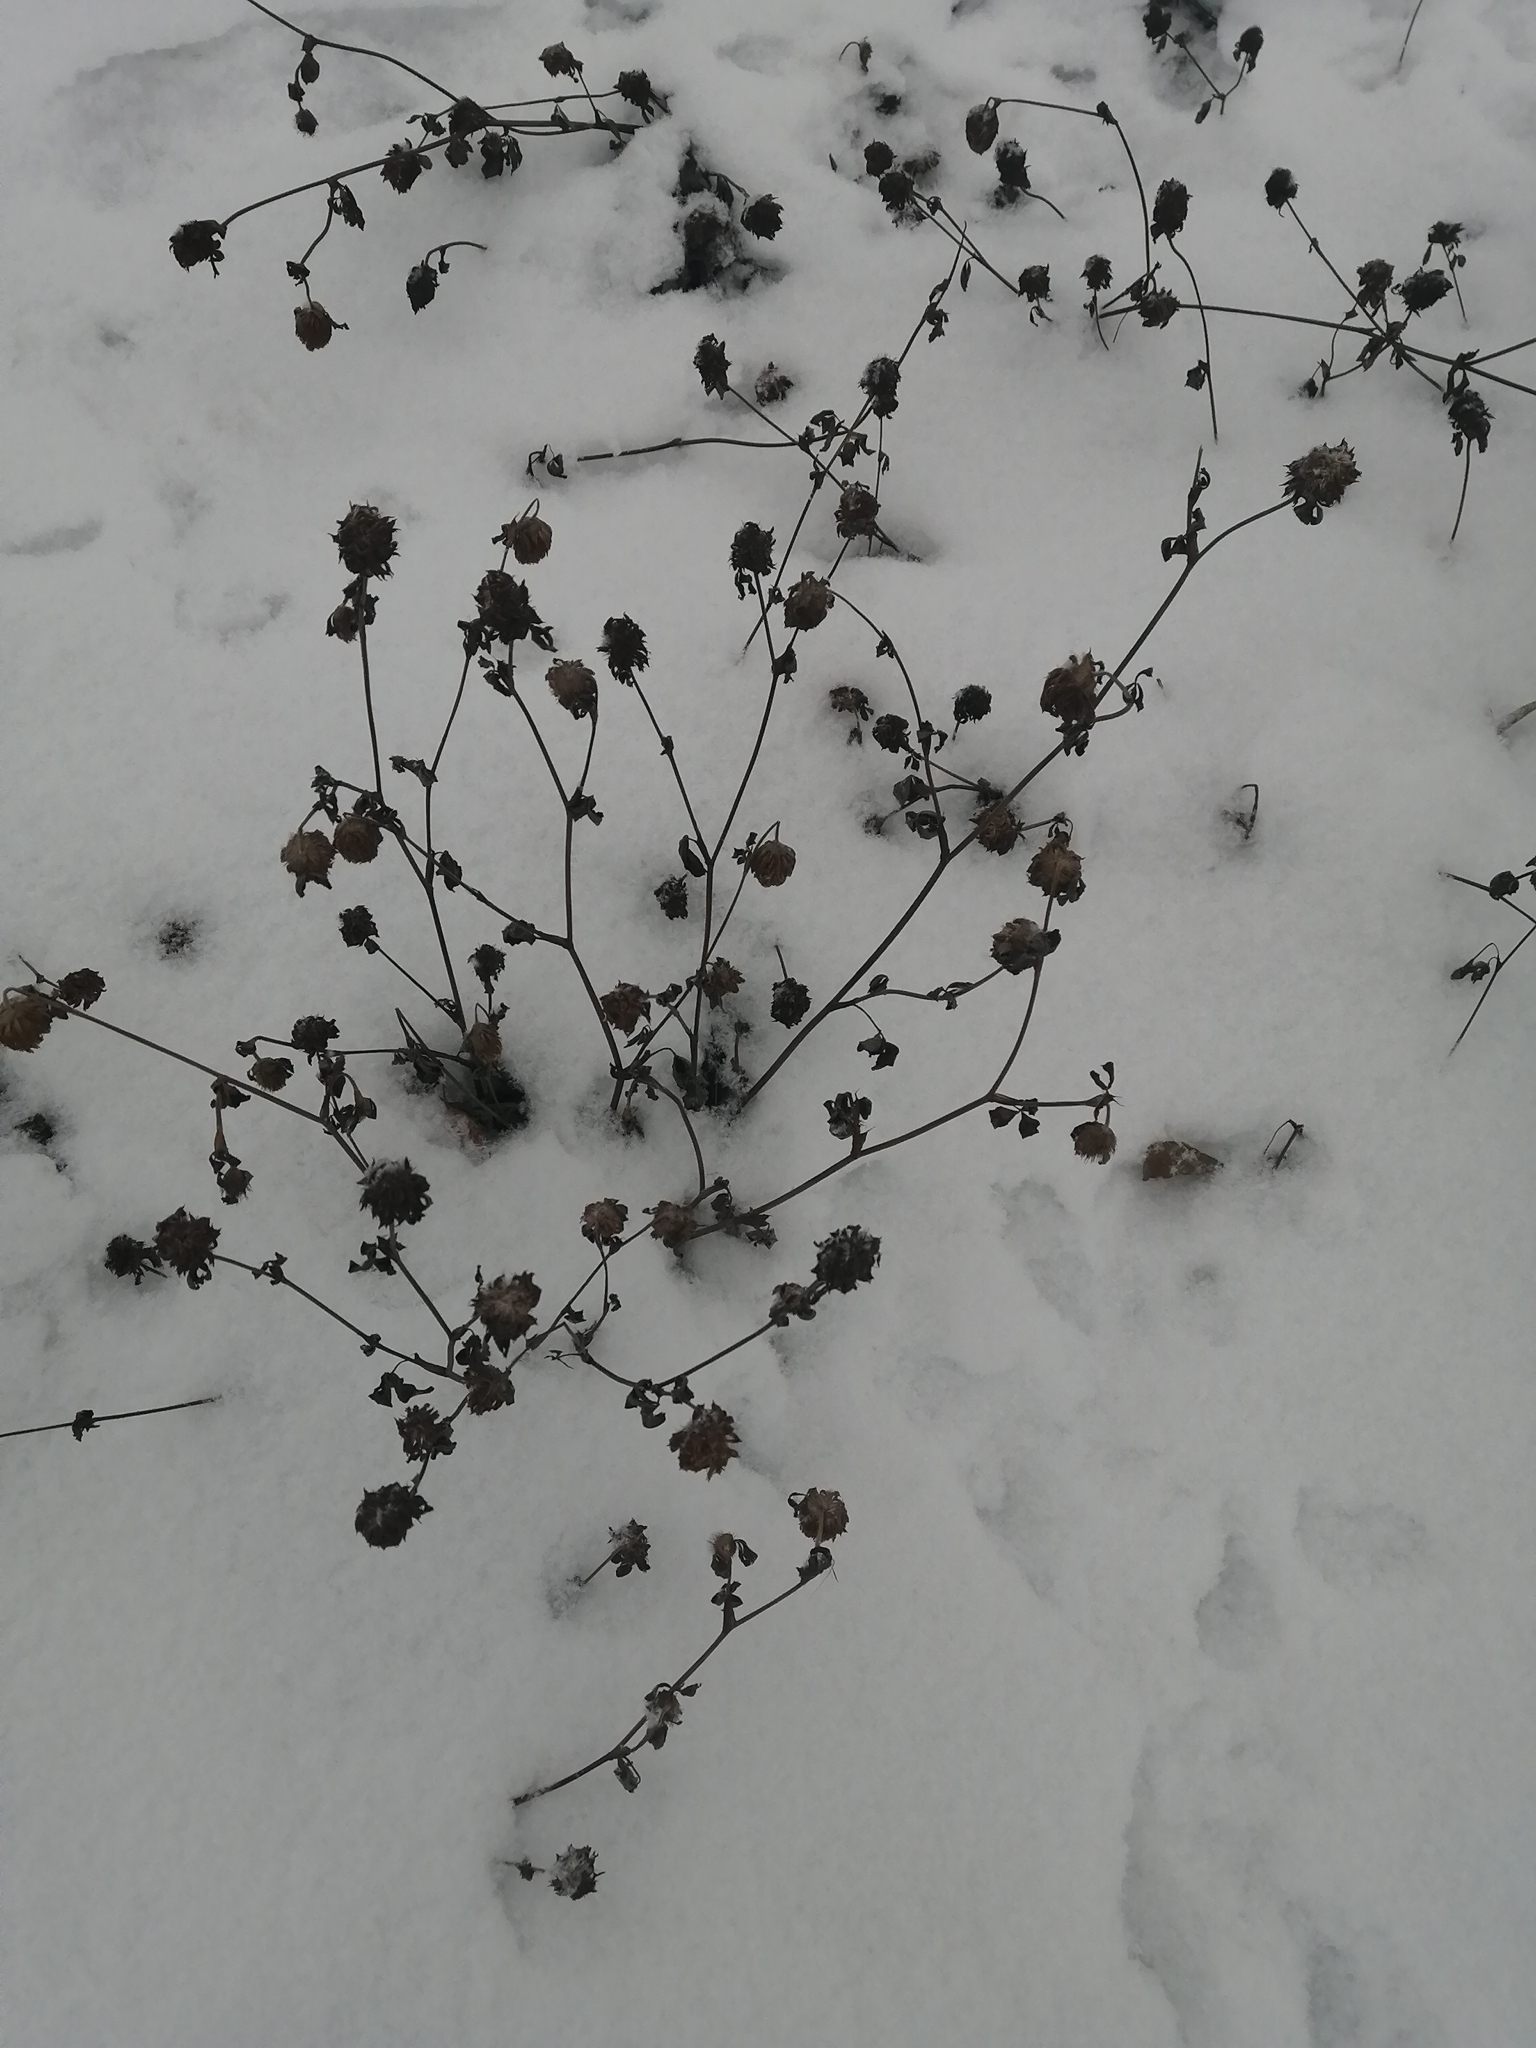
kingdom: Plantae
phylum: Tracheophyta
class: Magnoliopsida
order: Fabales
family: Fabaceae
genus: Trifolium
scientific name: Trifolium pratense
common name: Red clover
